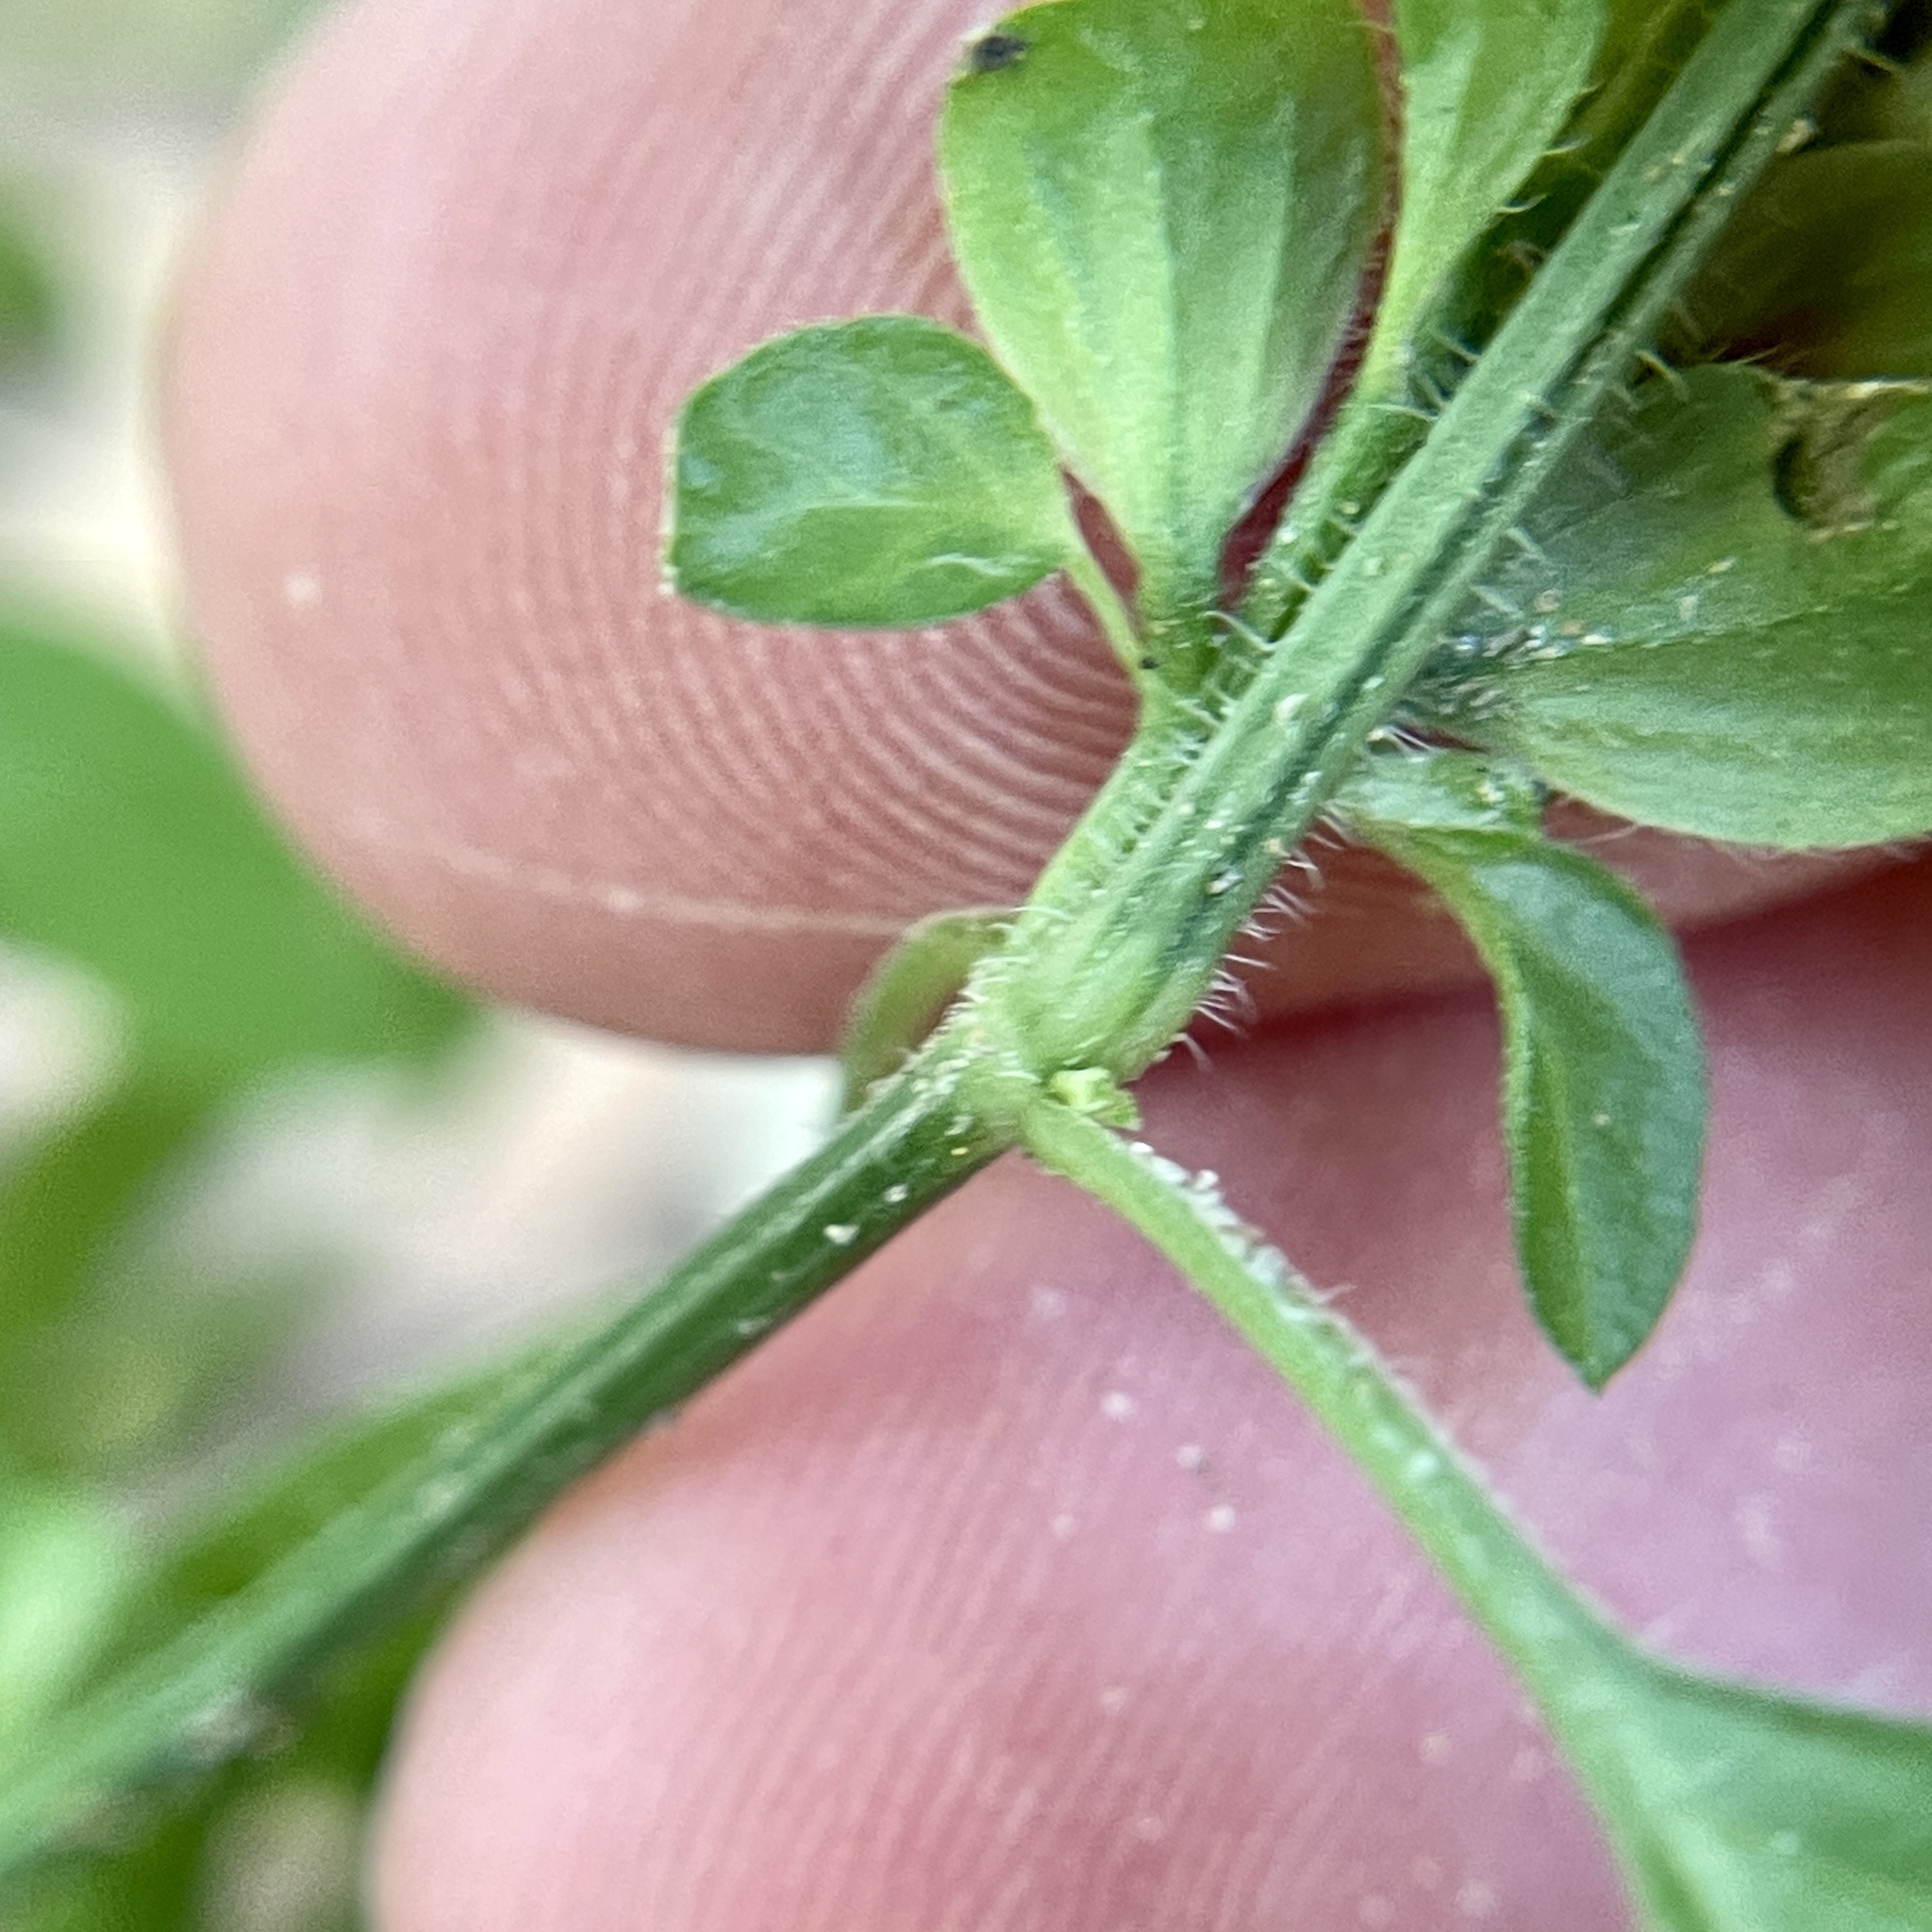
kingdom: Plantae
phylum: Tracheophyta
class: Magnoliopsida
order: Lamiales
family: Acanthaceae
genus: Dicliptera
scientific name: Dicliptera brachiata
